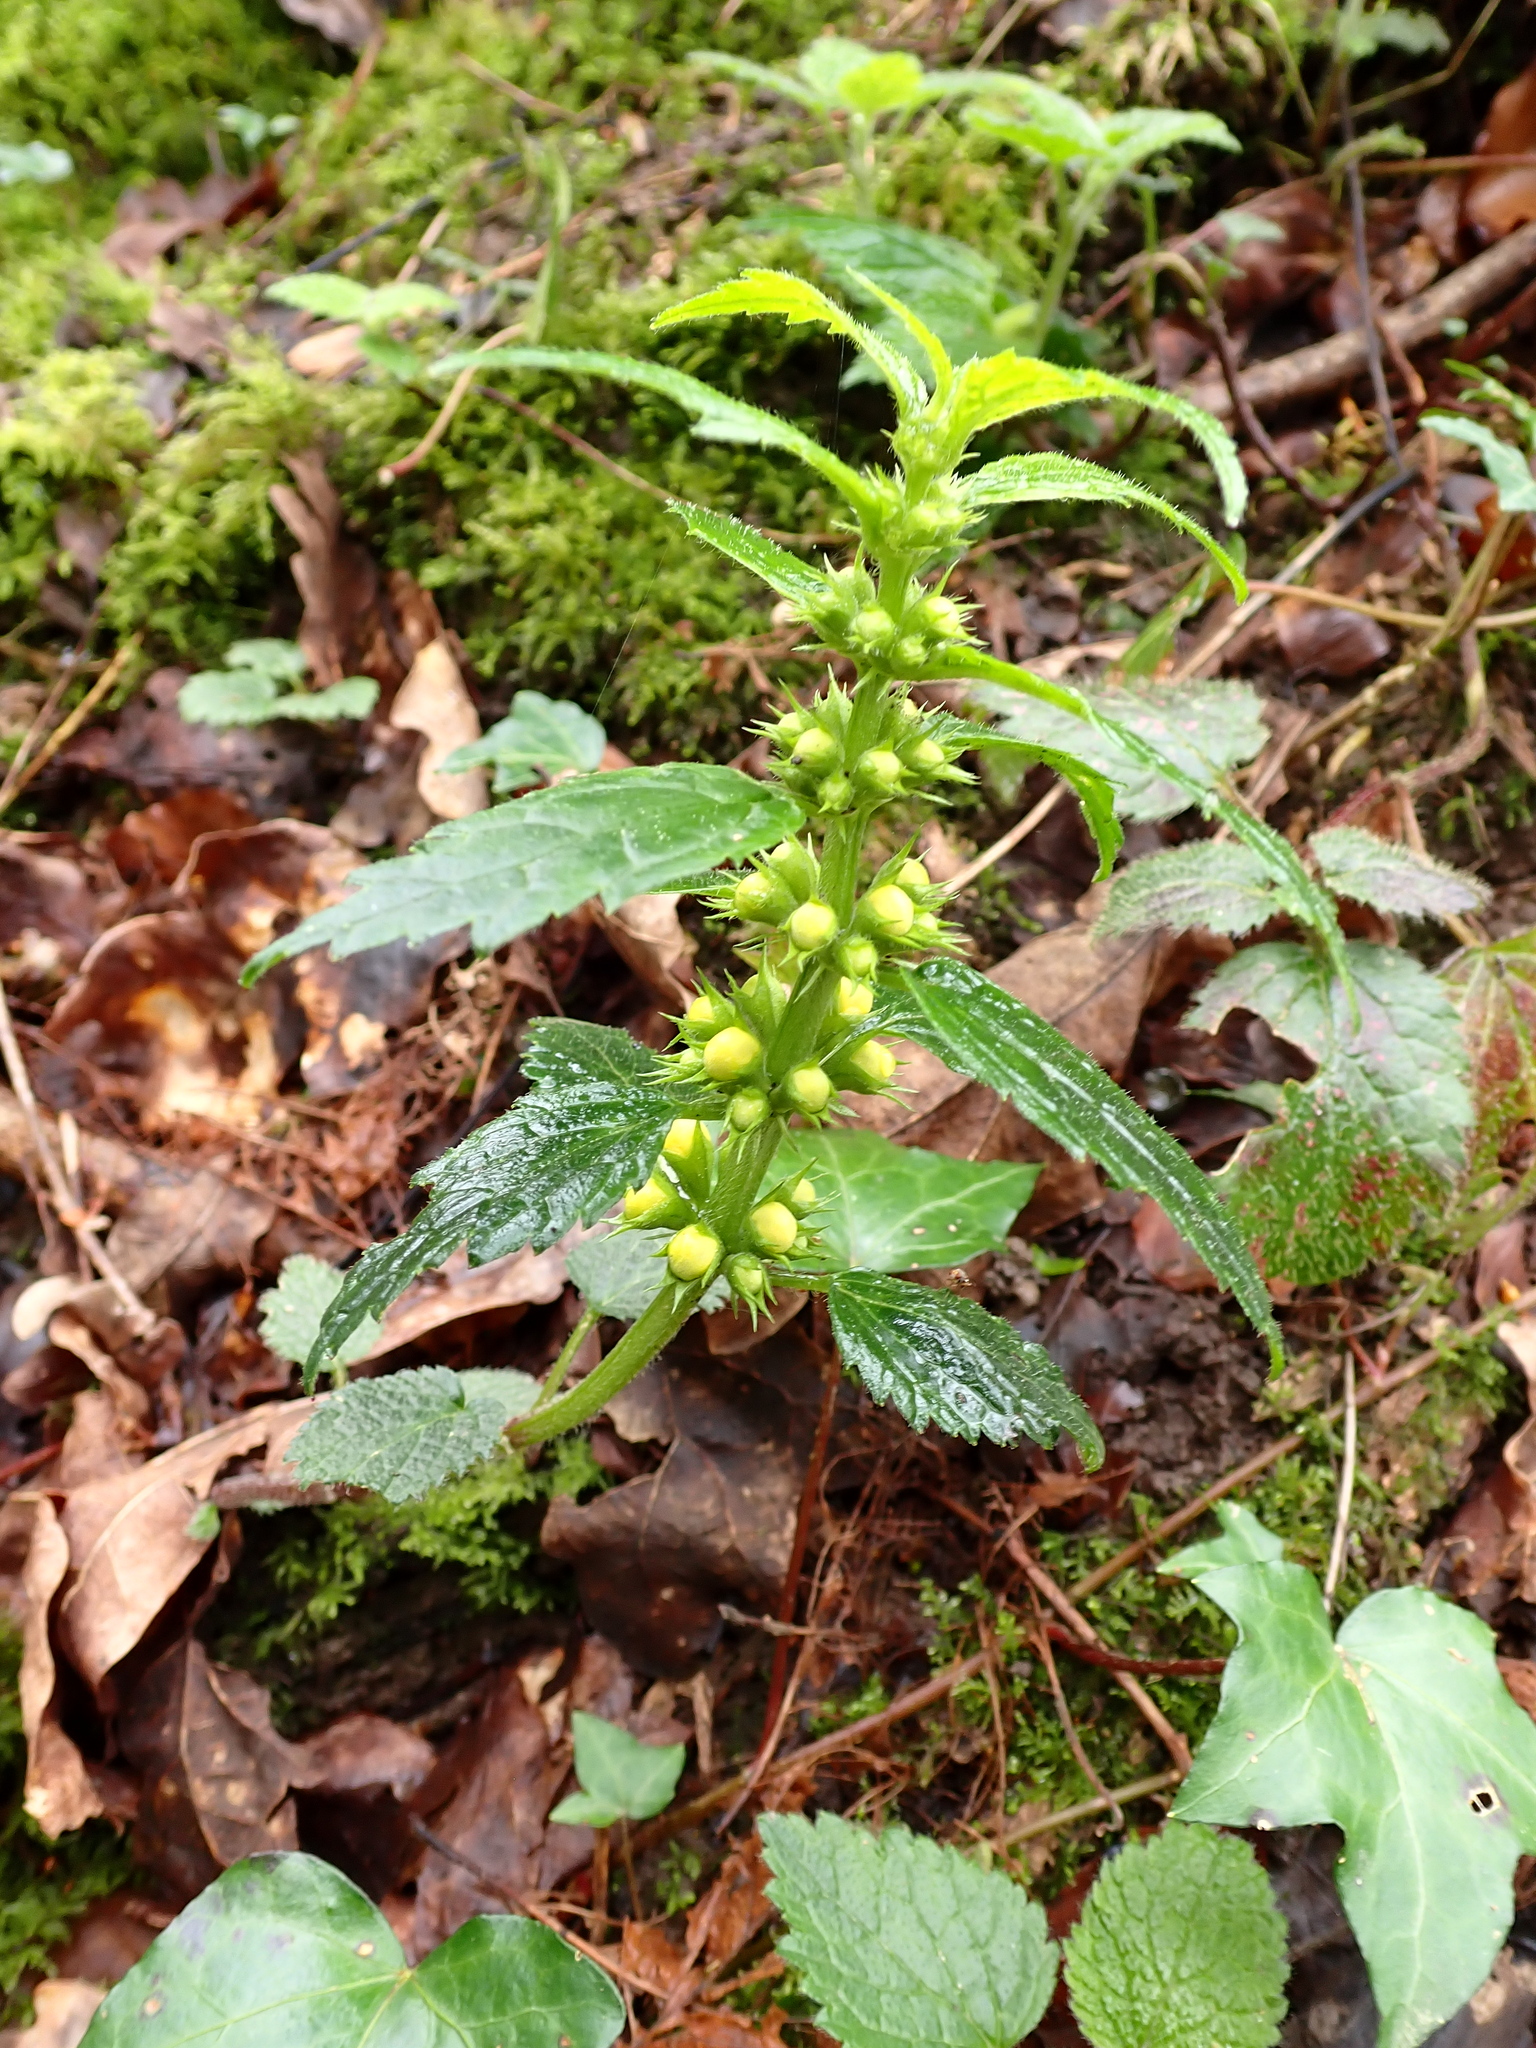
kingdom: Plantae
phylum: Tracheophyta
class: Magnoliopsida
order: Lamiales
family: Lamiaceae
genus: Lamium
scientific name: Lamium galeobdolon
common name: Yellow archangel
